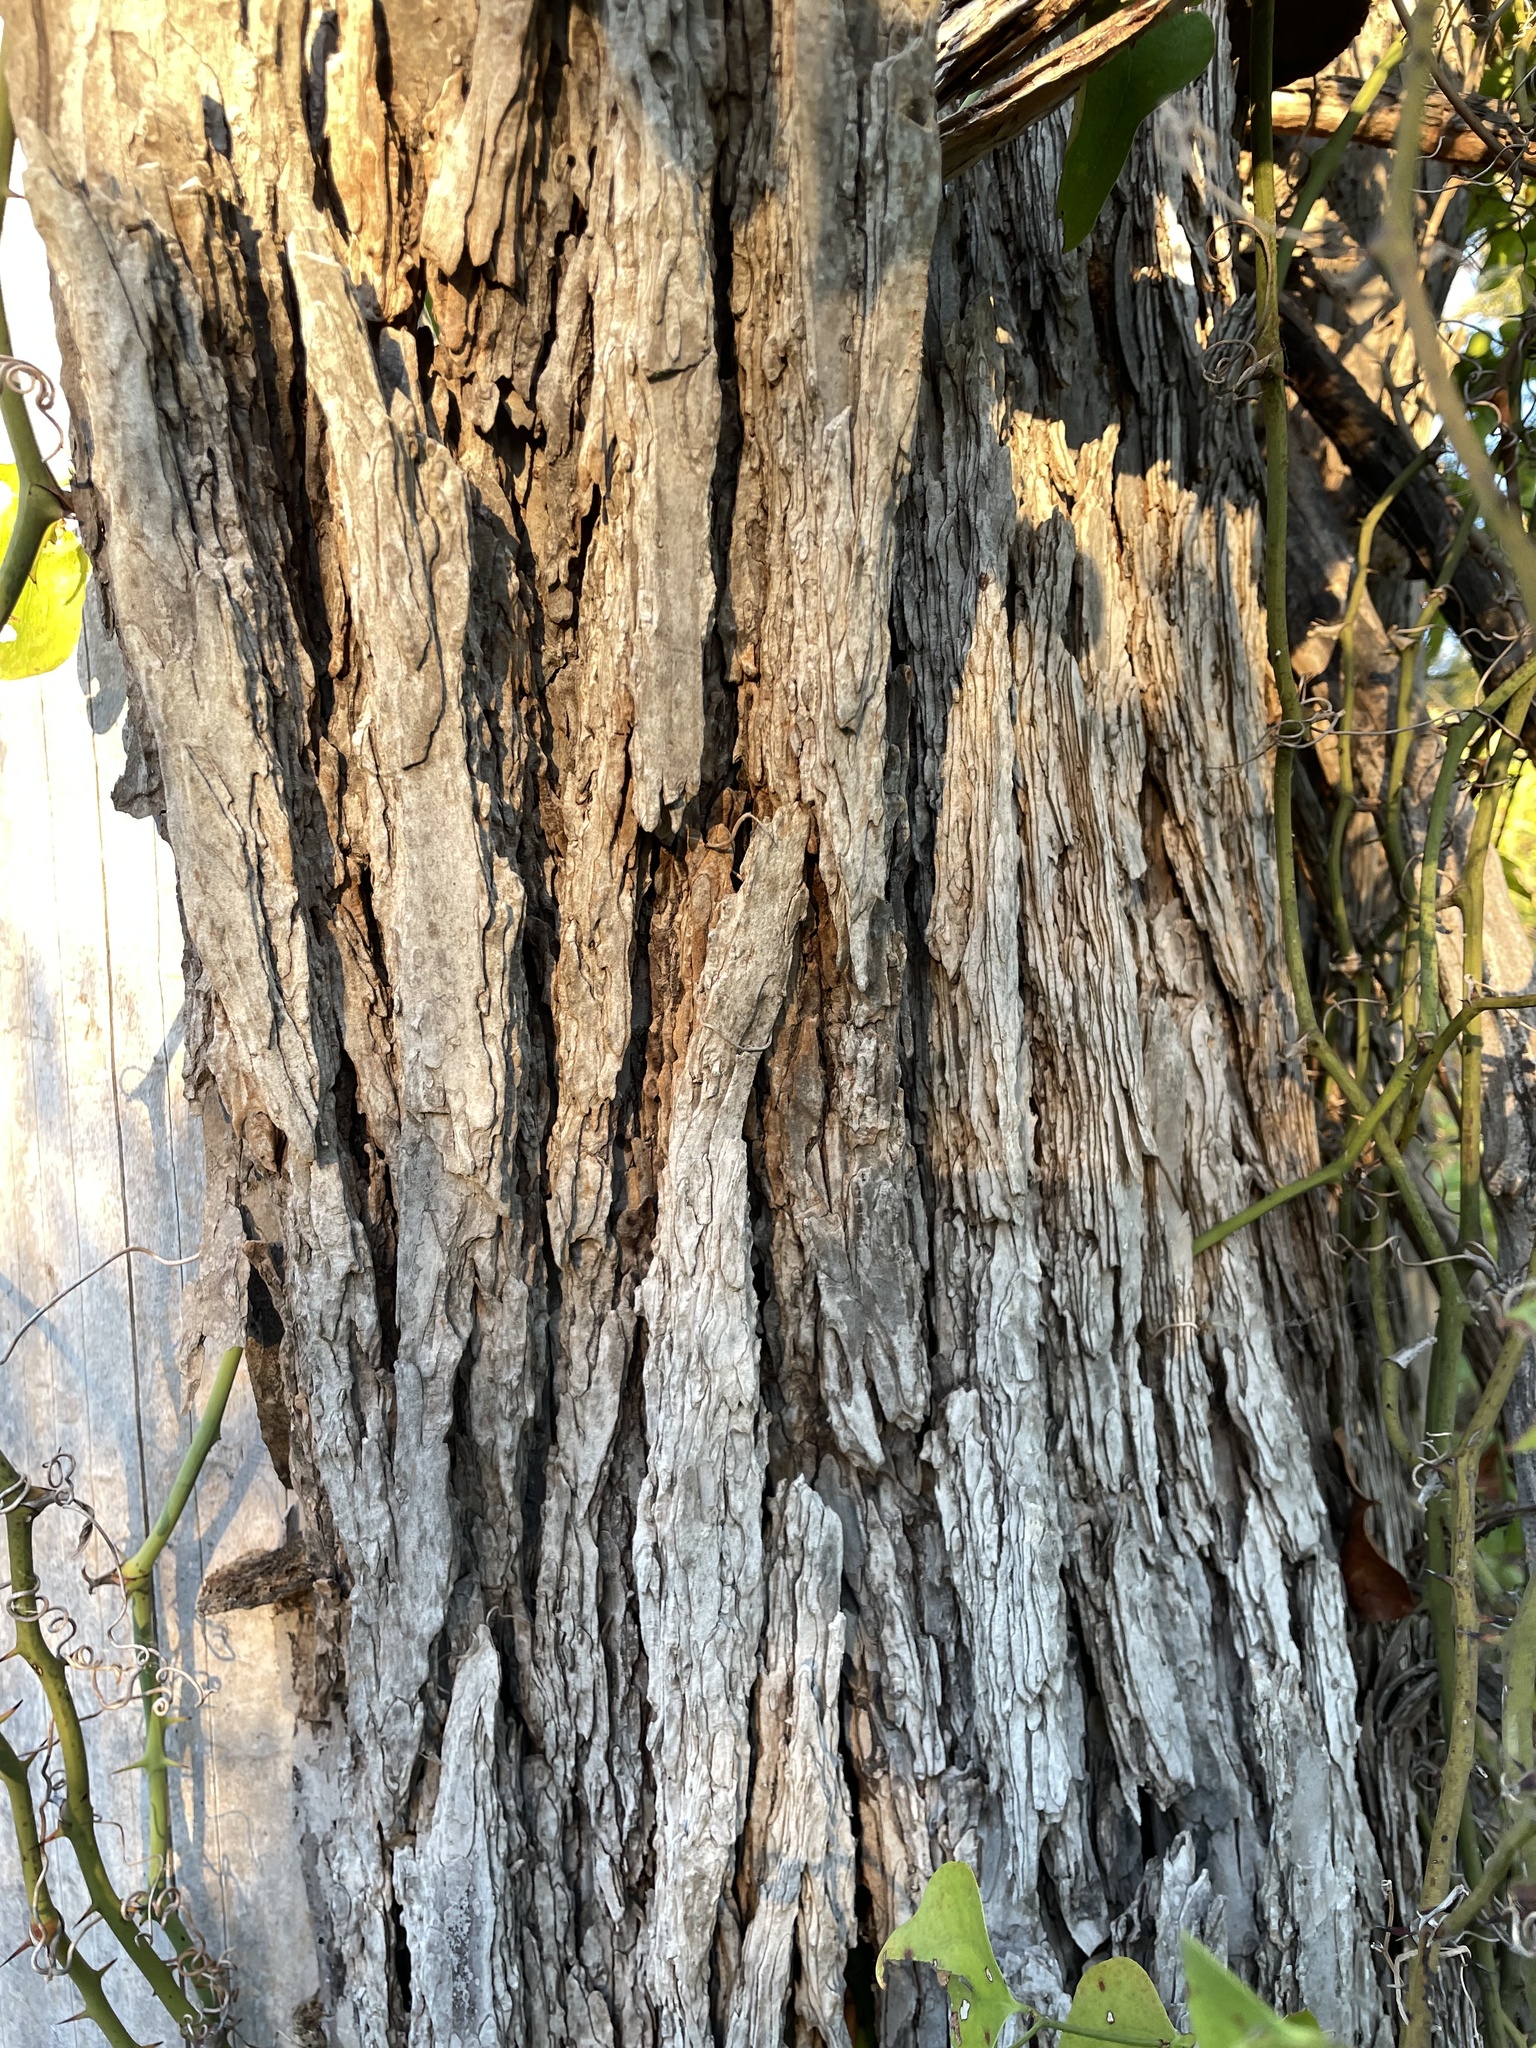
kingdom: Plantae
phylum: Tracheophyta
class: Magnoliopsida
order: Rosales
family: Ulmaceae
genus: Ulmus
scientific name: Ulmus crassifolia
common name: Basket elm
